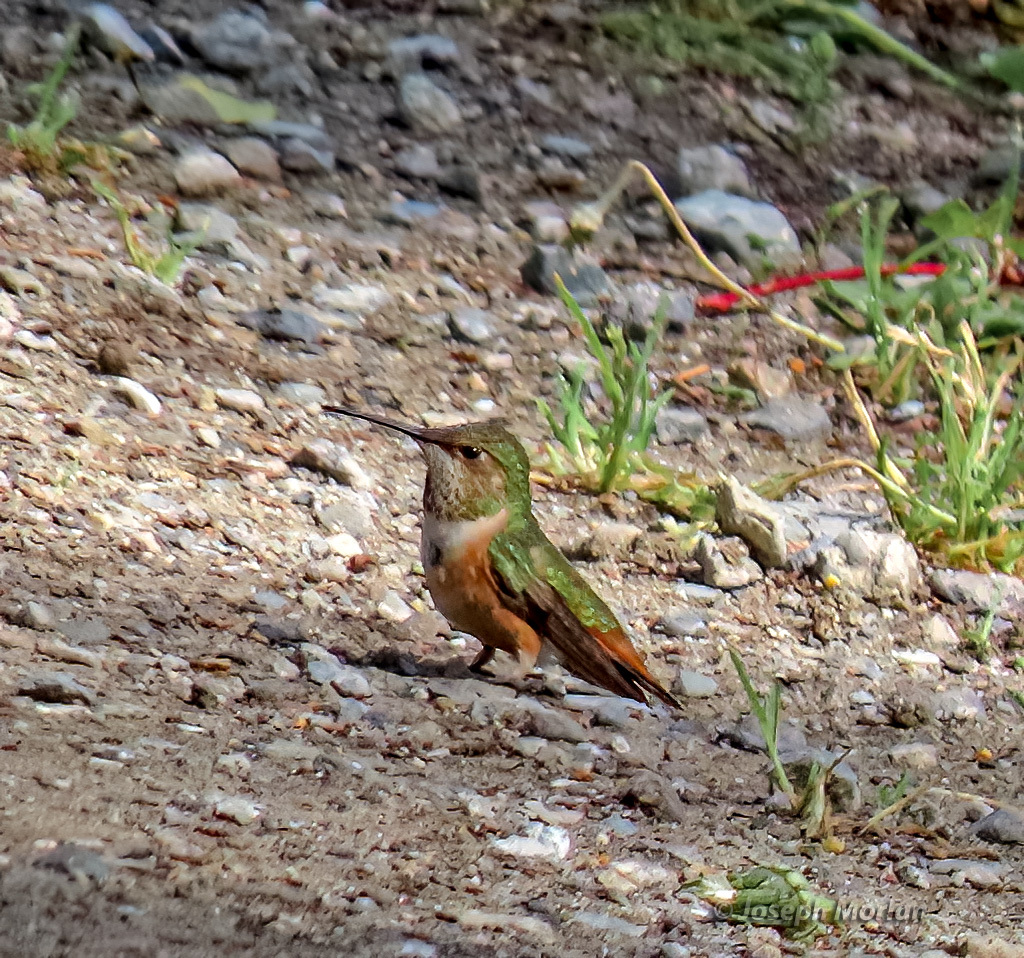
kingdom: Animalia
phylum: Chordata
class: Aves
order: Apodiformes
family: Trochilidae
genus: Selasphorus
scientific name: Selasphorus sasin
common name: Allen's hummingbird
